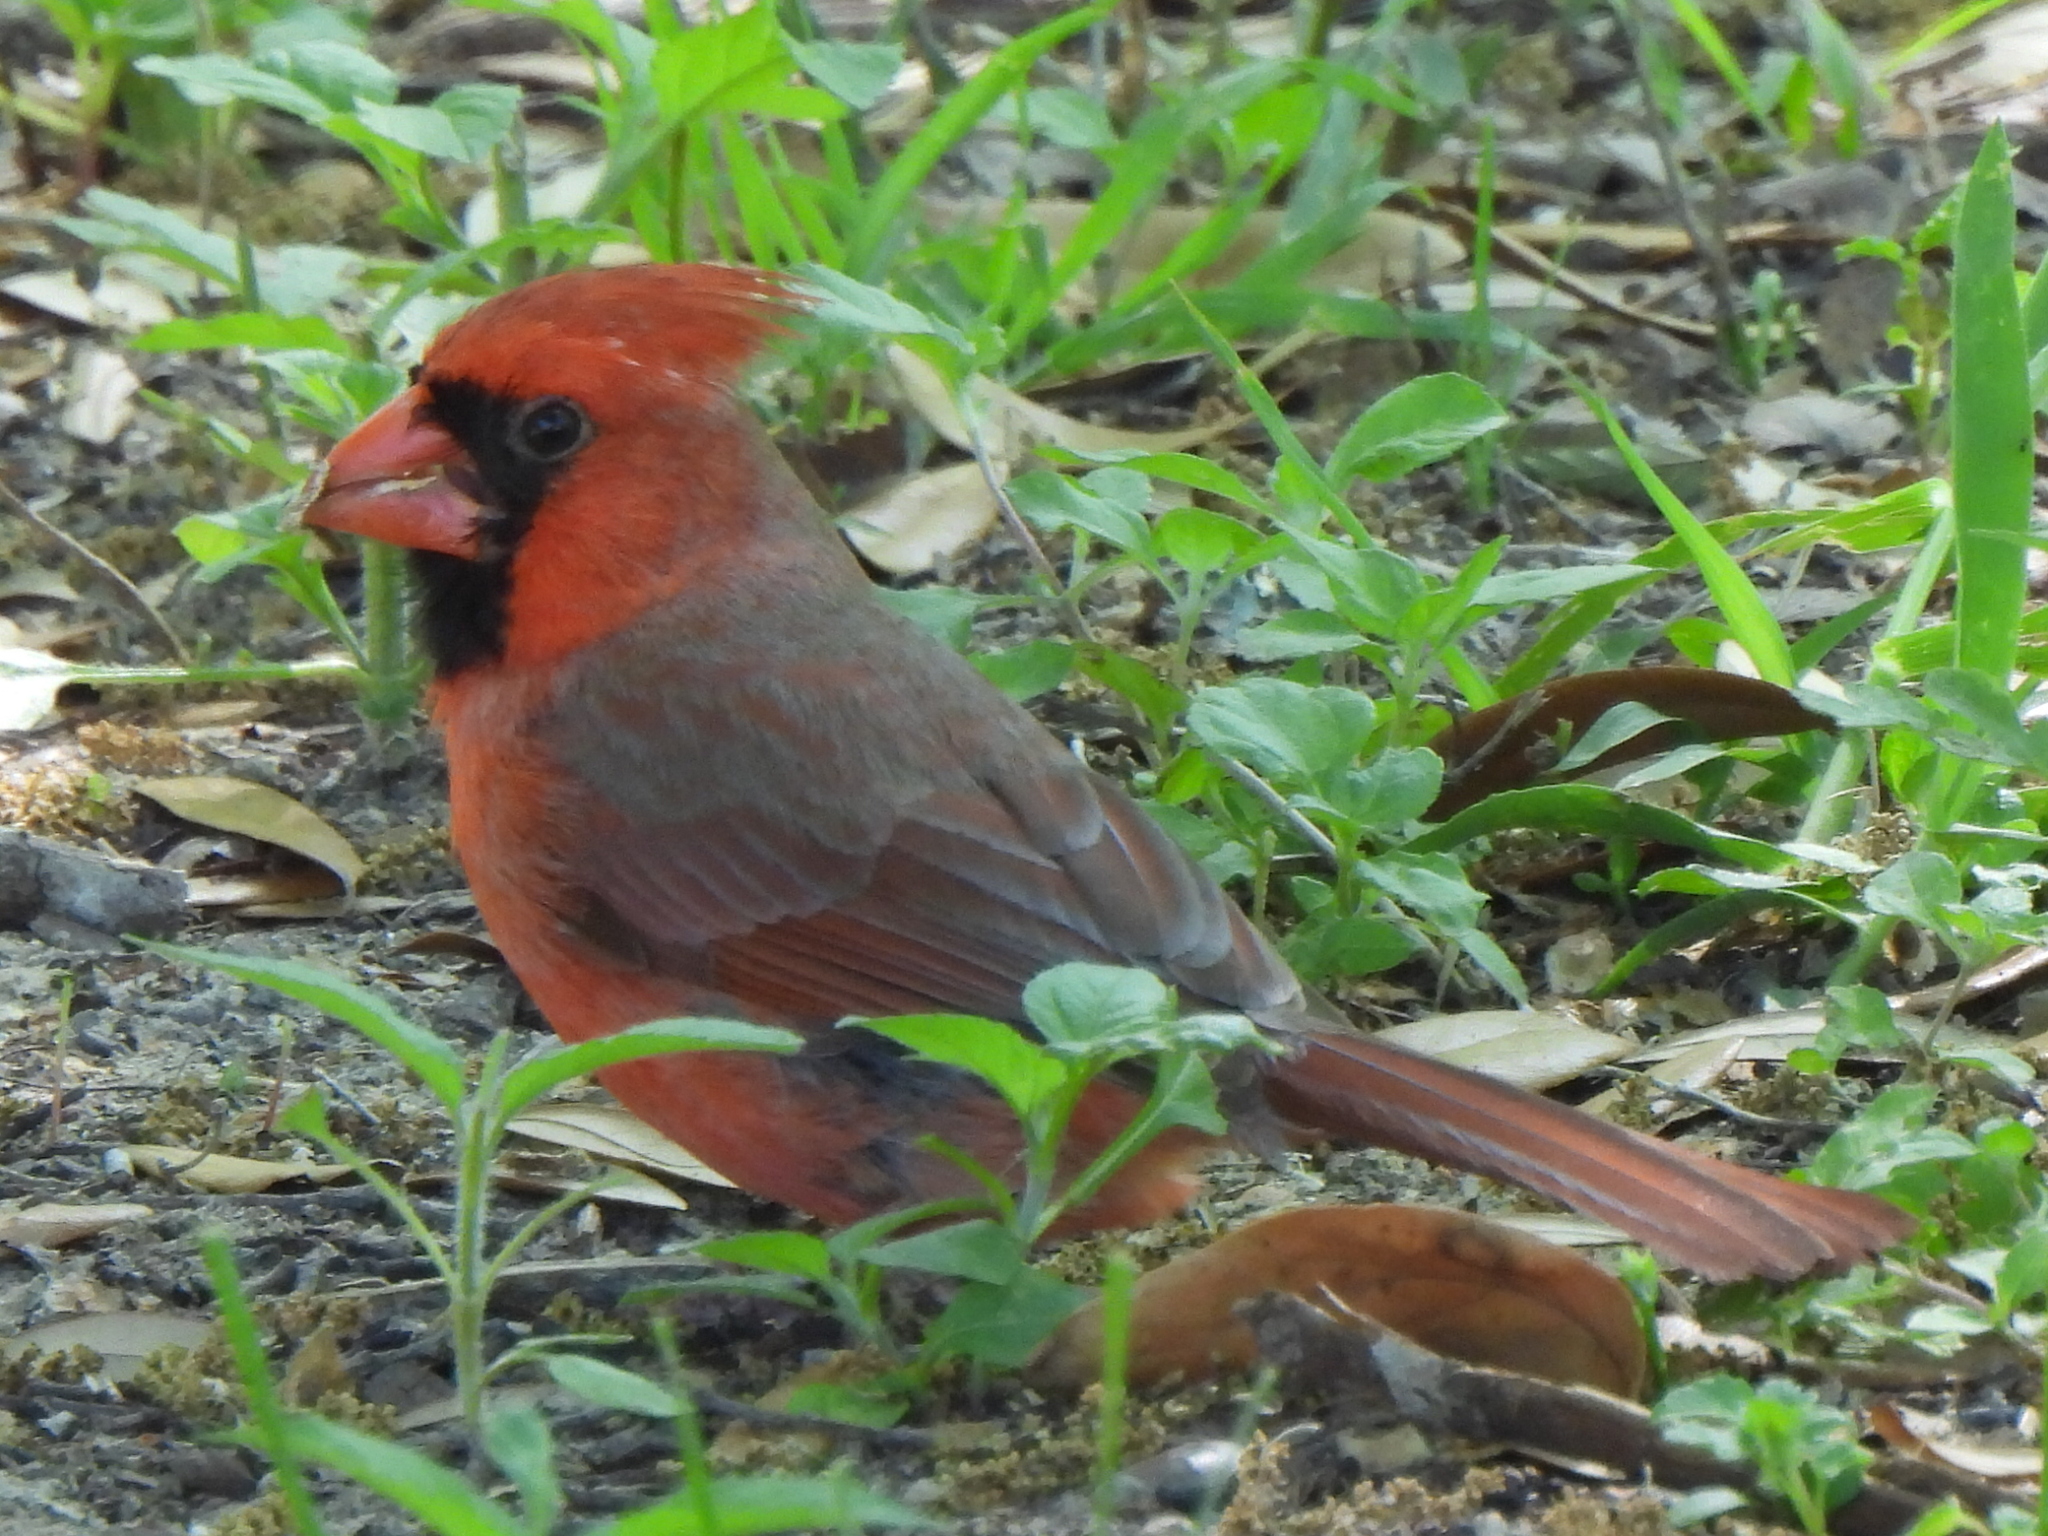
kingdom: Animalia
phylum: Chordata
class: Aves
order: Passeriformes
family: Cardinalidae
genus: Cardinalis
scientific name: Cardinalis cardinalis
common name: Northern cardinal
